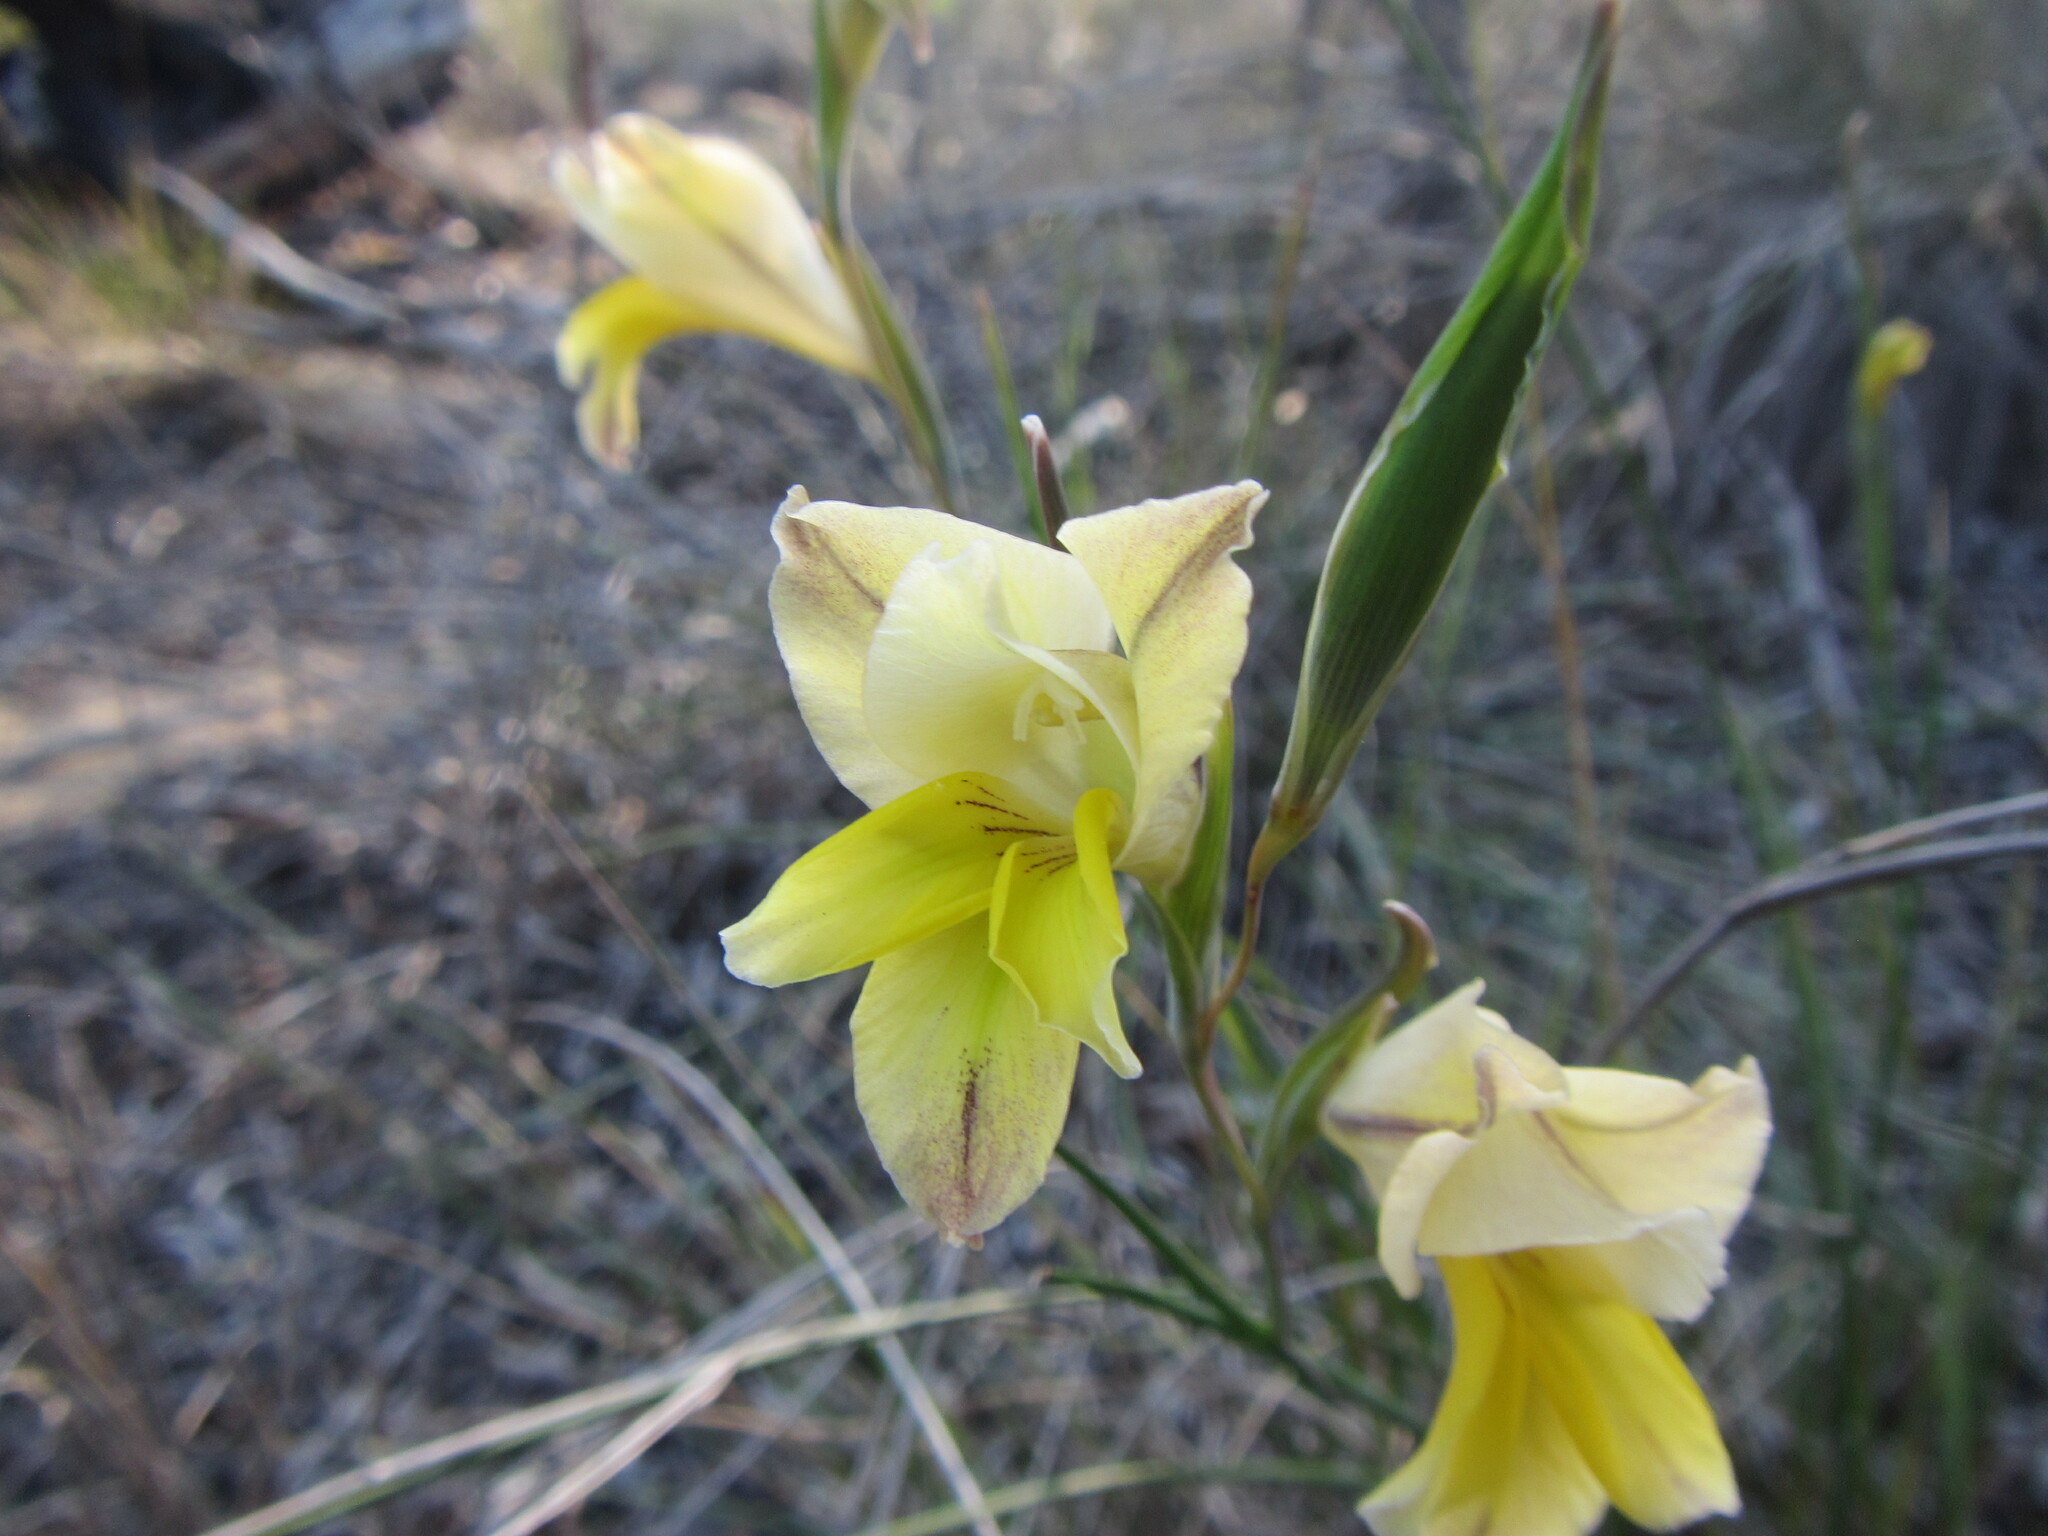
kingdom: Plantae
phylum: Tracheophyta
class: Liliopsida
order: Asparagales
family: Iridaceae
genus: Gladiolus
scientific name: Gladiolus carinatus
